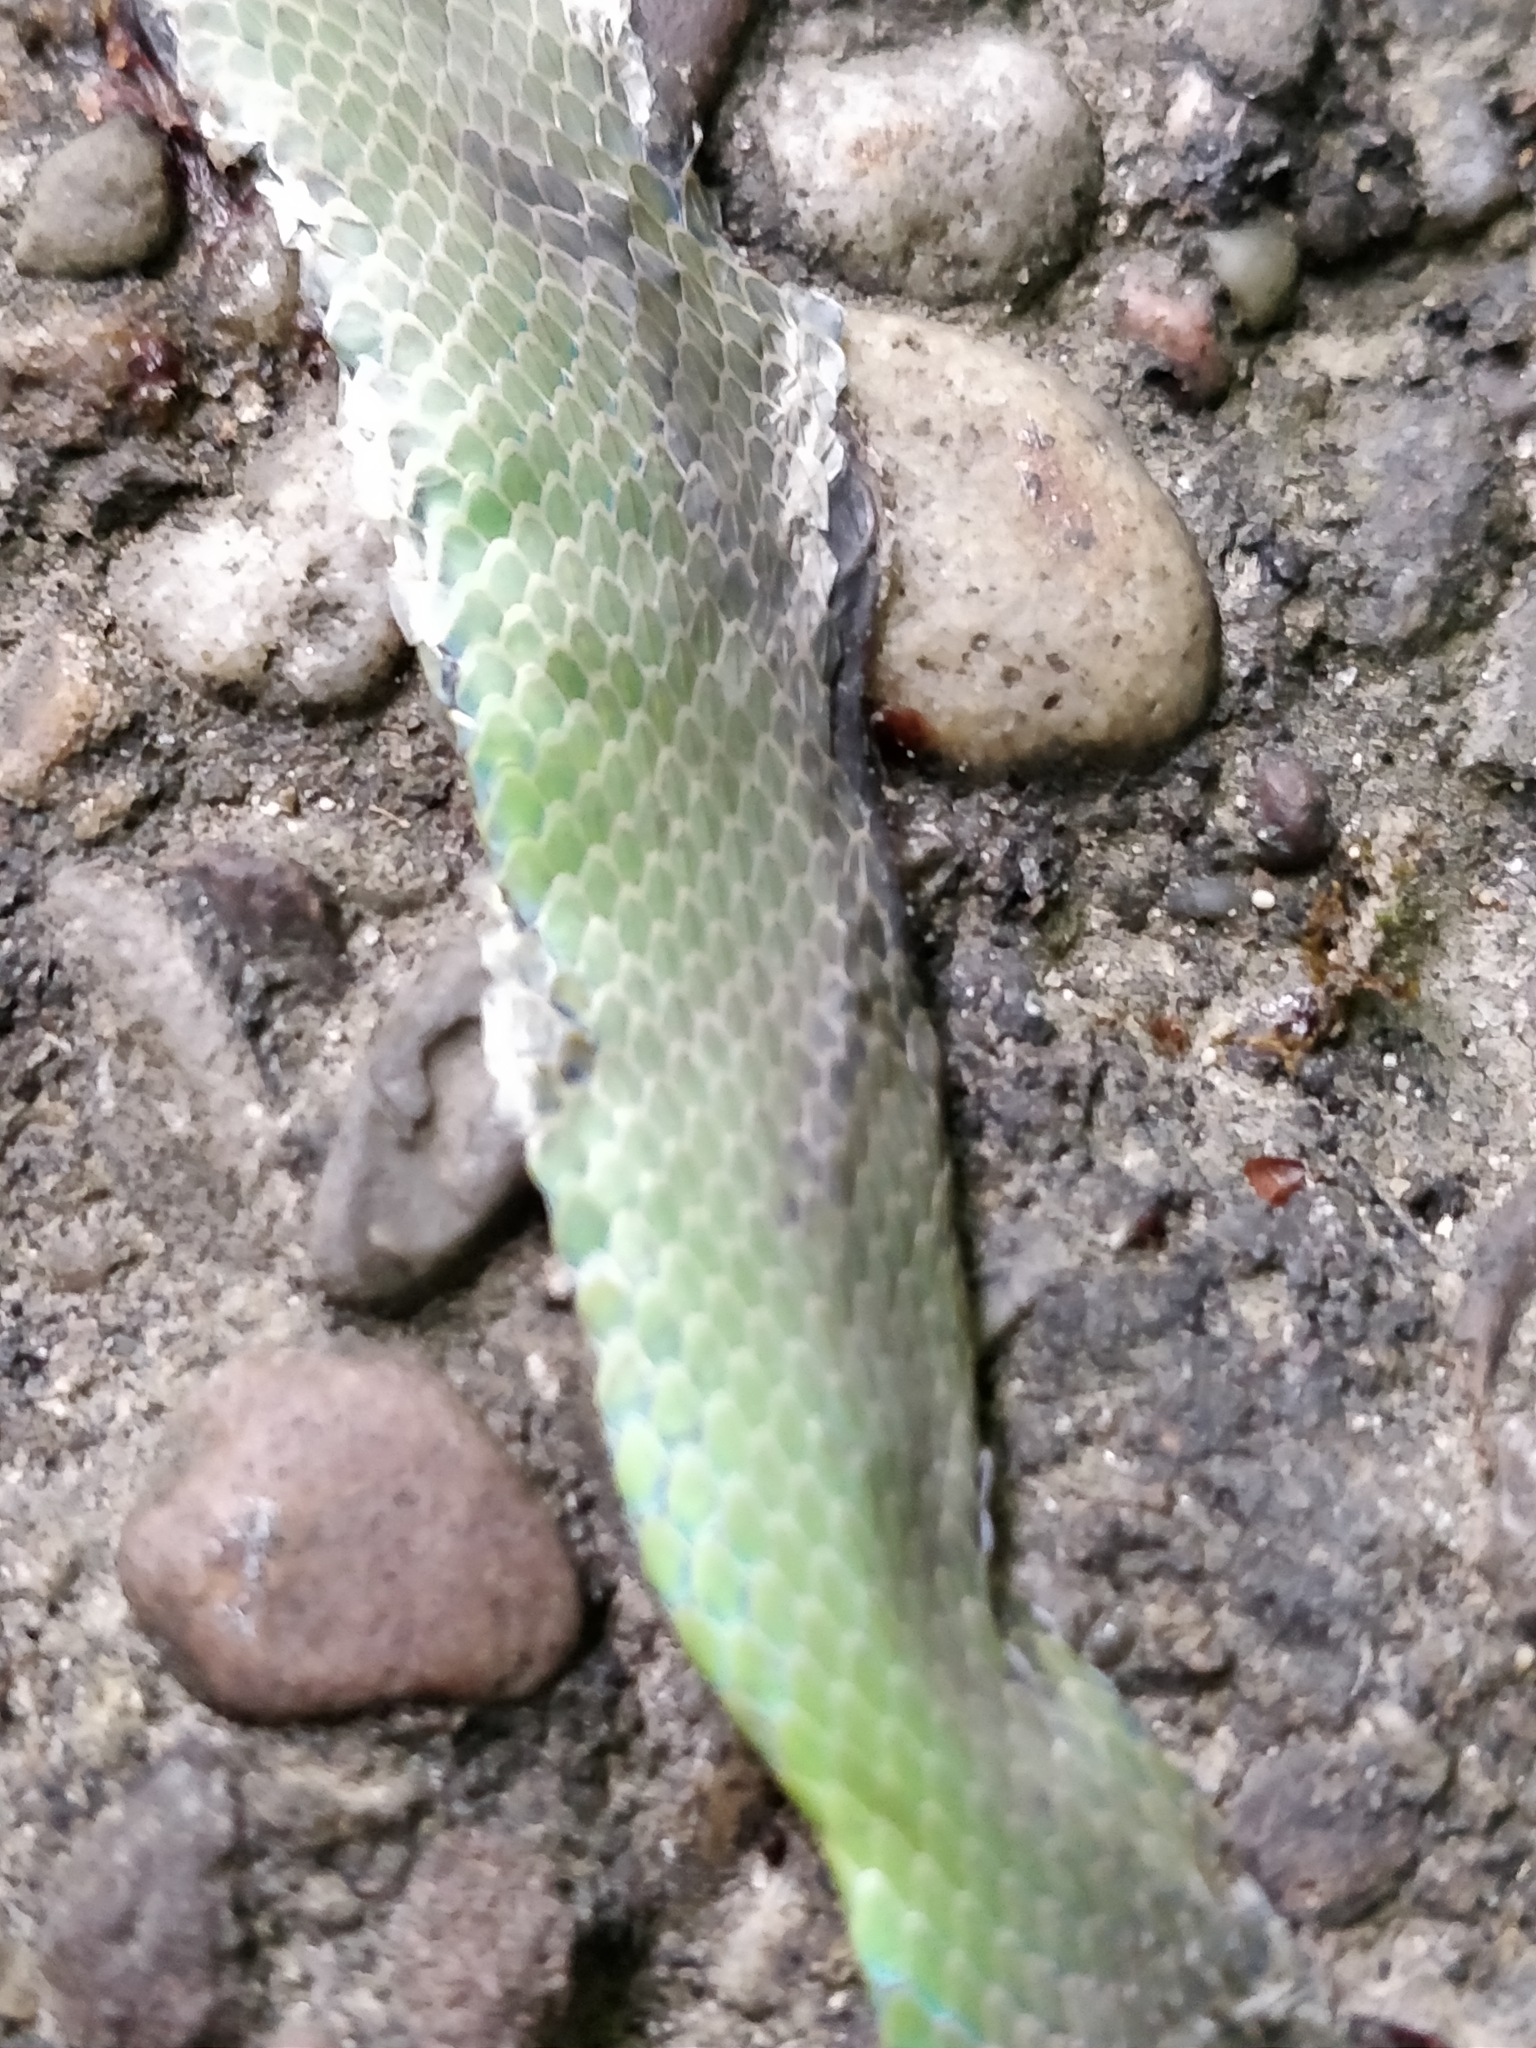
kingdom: Animalia
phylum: Chordata
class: Squamata
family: Colubridae
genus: Opheodrys
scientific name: Opheodrys aestivus
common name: Rough greensnake
